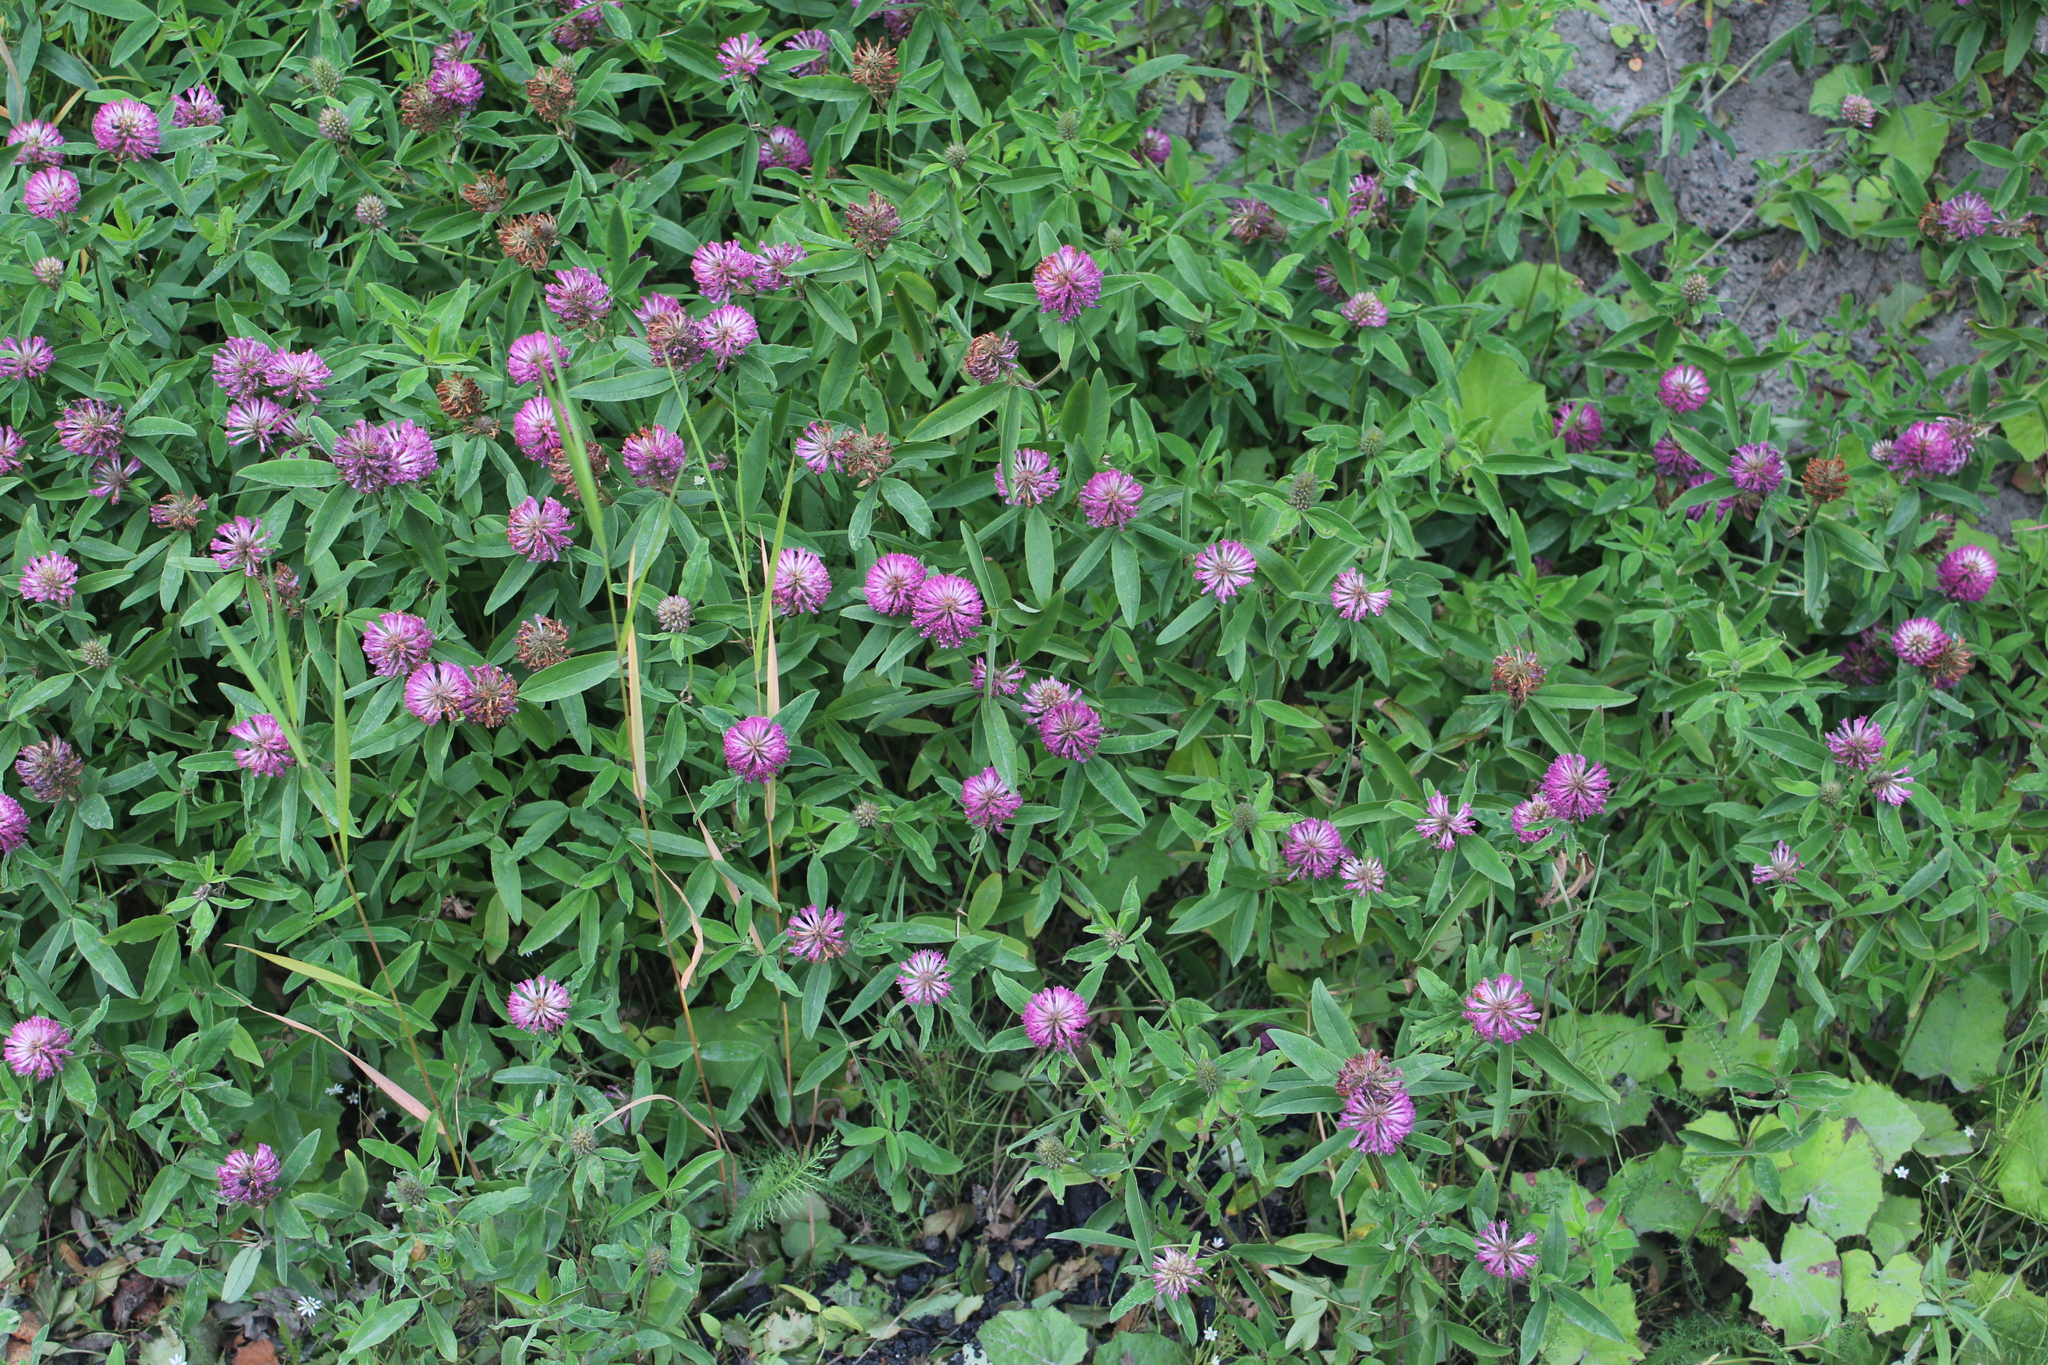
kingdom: Plantae
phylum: Tracheophyta
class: Magnoliopsida
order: Fabales
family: Fabaceae
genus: Trifolium
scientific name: Trifolium alpestre
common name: Owl-head clover
